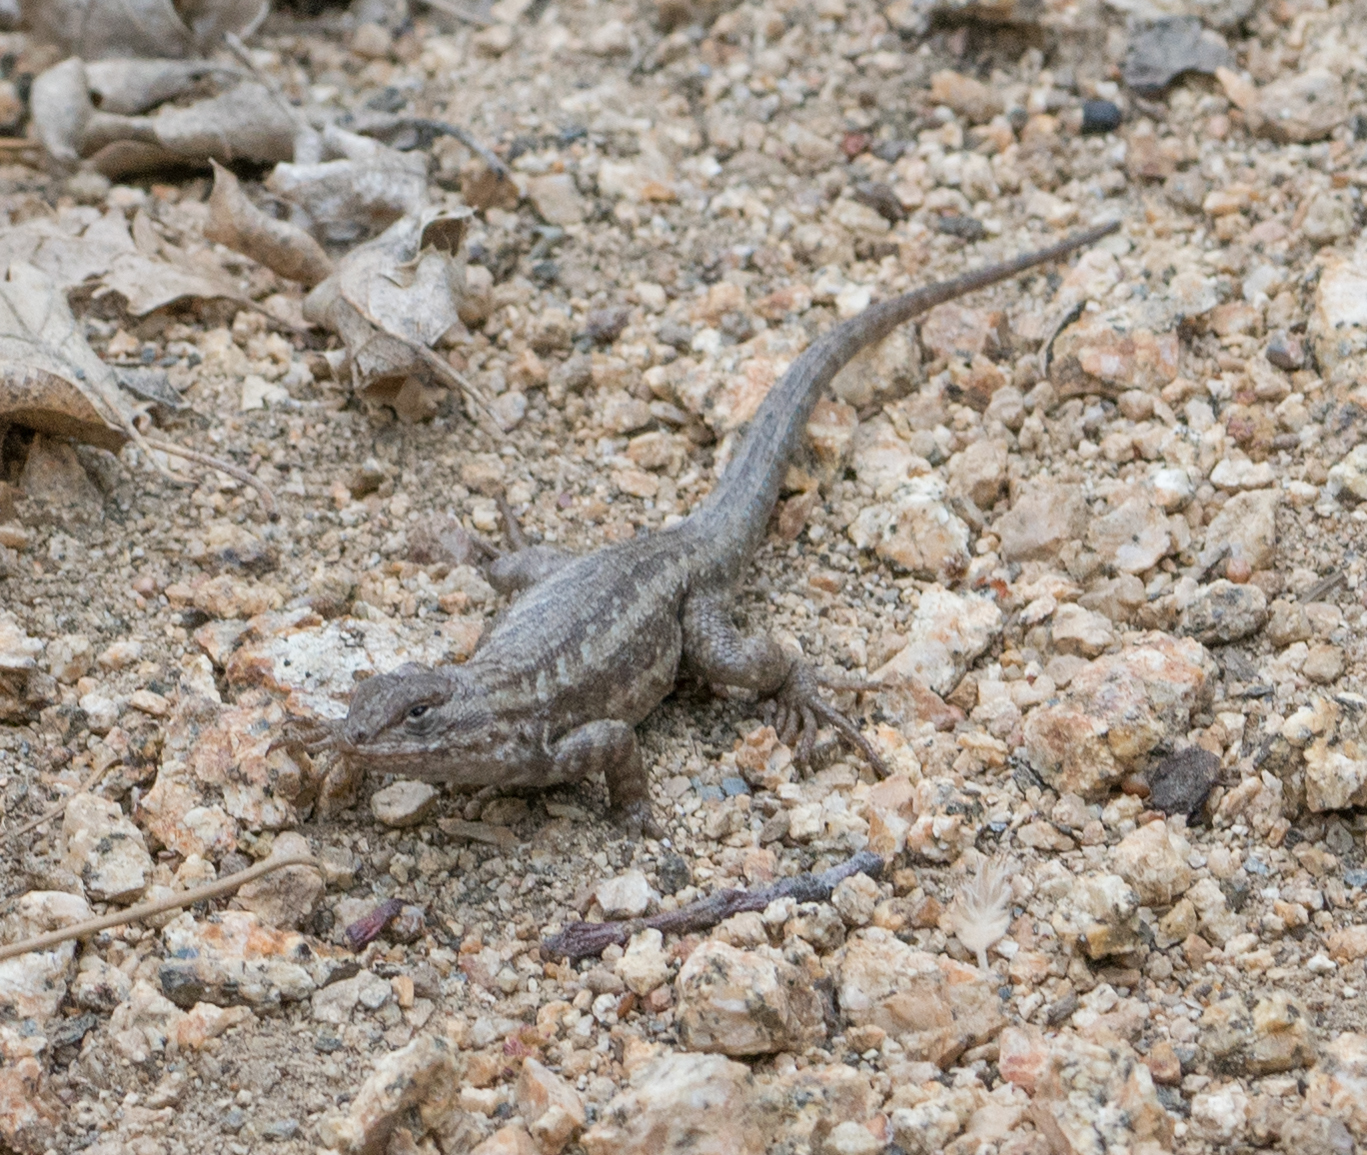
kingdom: Animalia
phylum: Chordata
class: Squamata
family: Phrynosomatidae
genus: Sceloporus
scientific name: Sceloporus graciosus
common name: Sagebrush lizard
